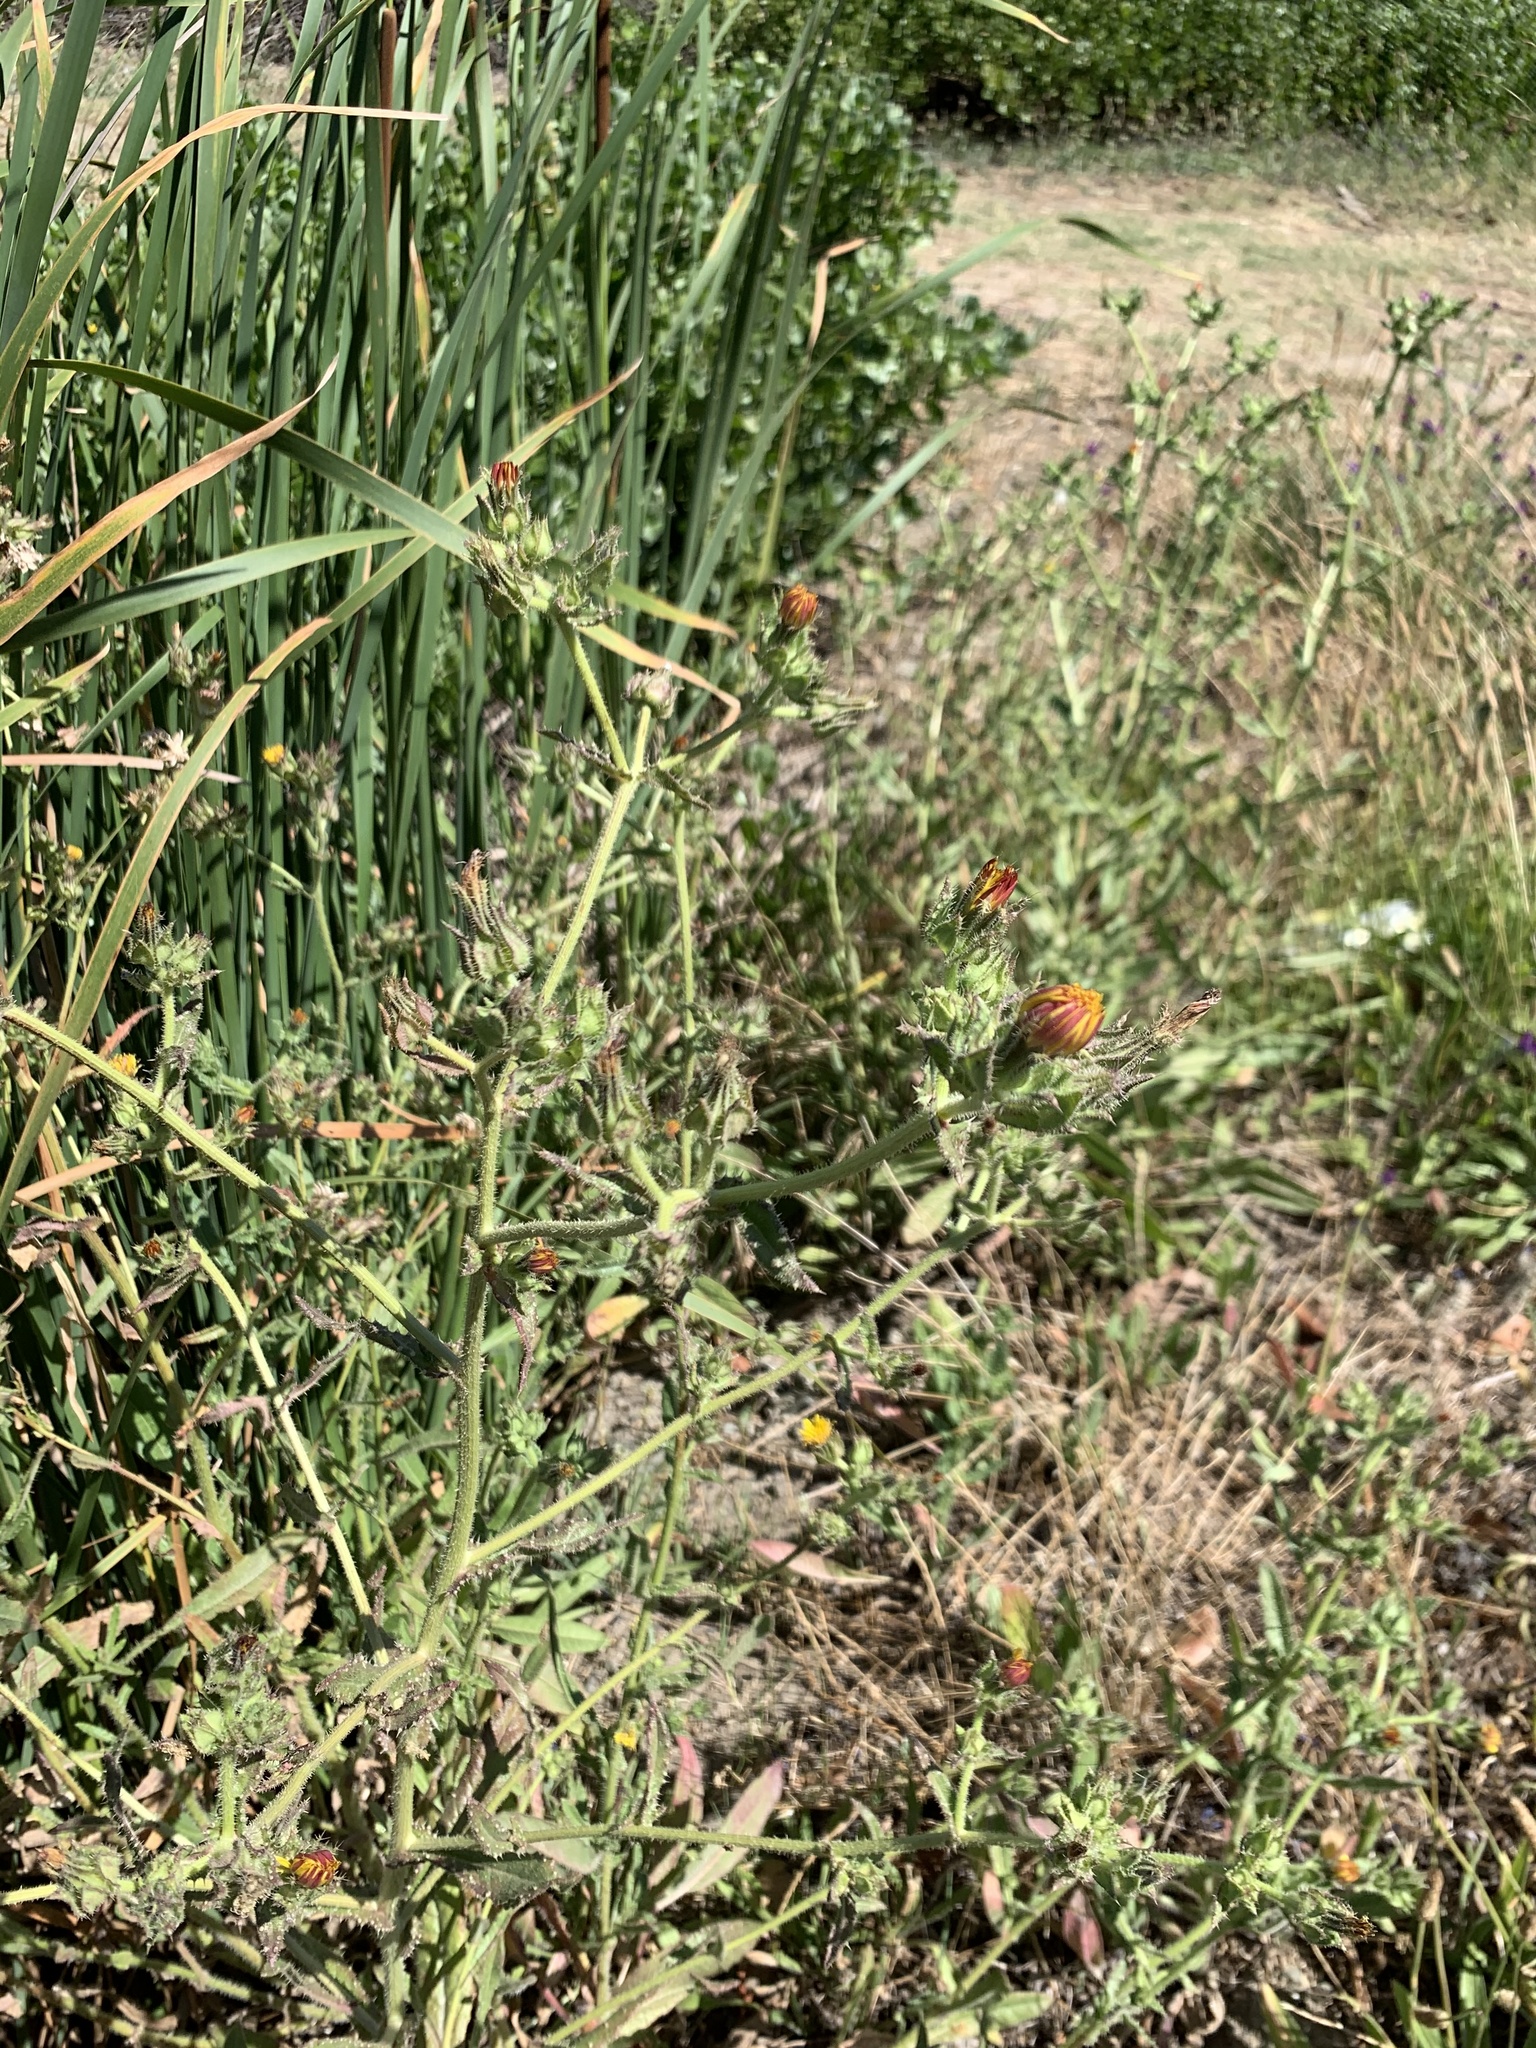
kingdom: Plantae
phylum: Tracheophyta
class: Magnoliopsida
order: Asterales
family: Asteraceae
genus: Helminthotheca
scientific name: Helminthotheca echioides
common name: Ox-tongue
